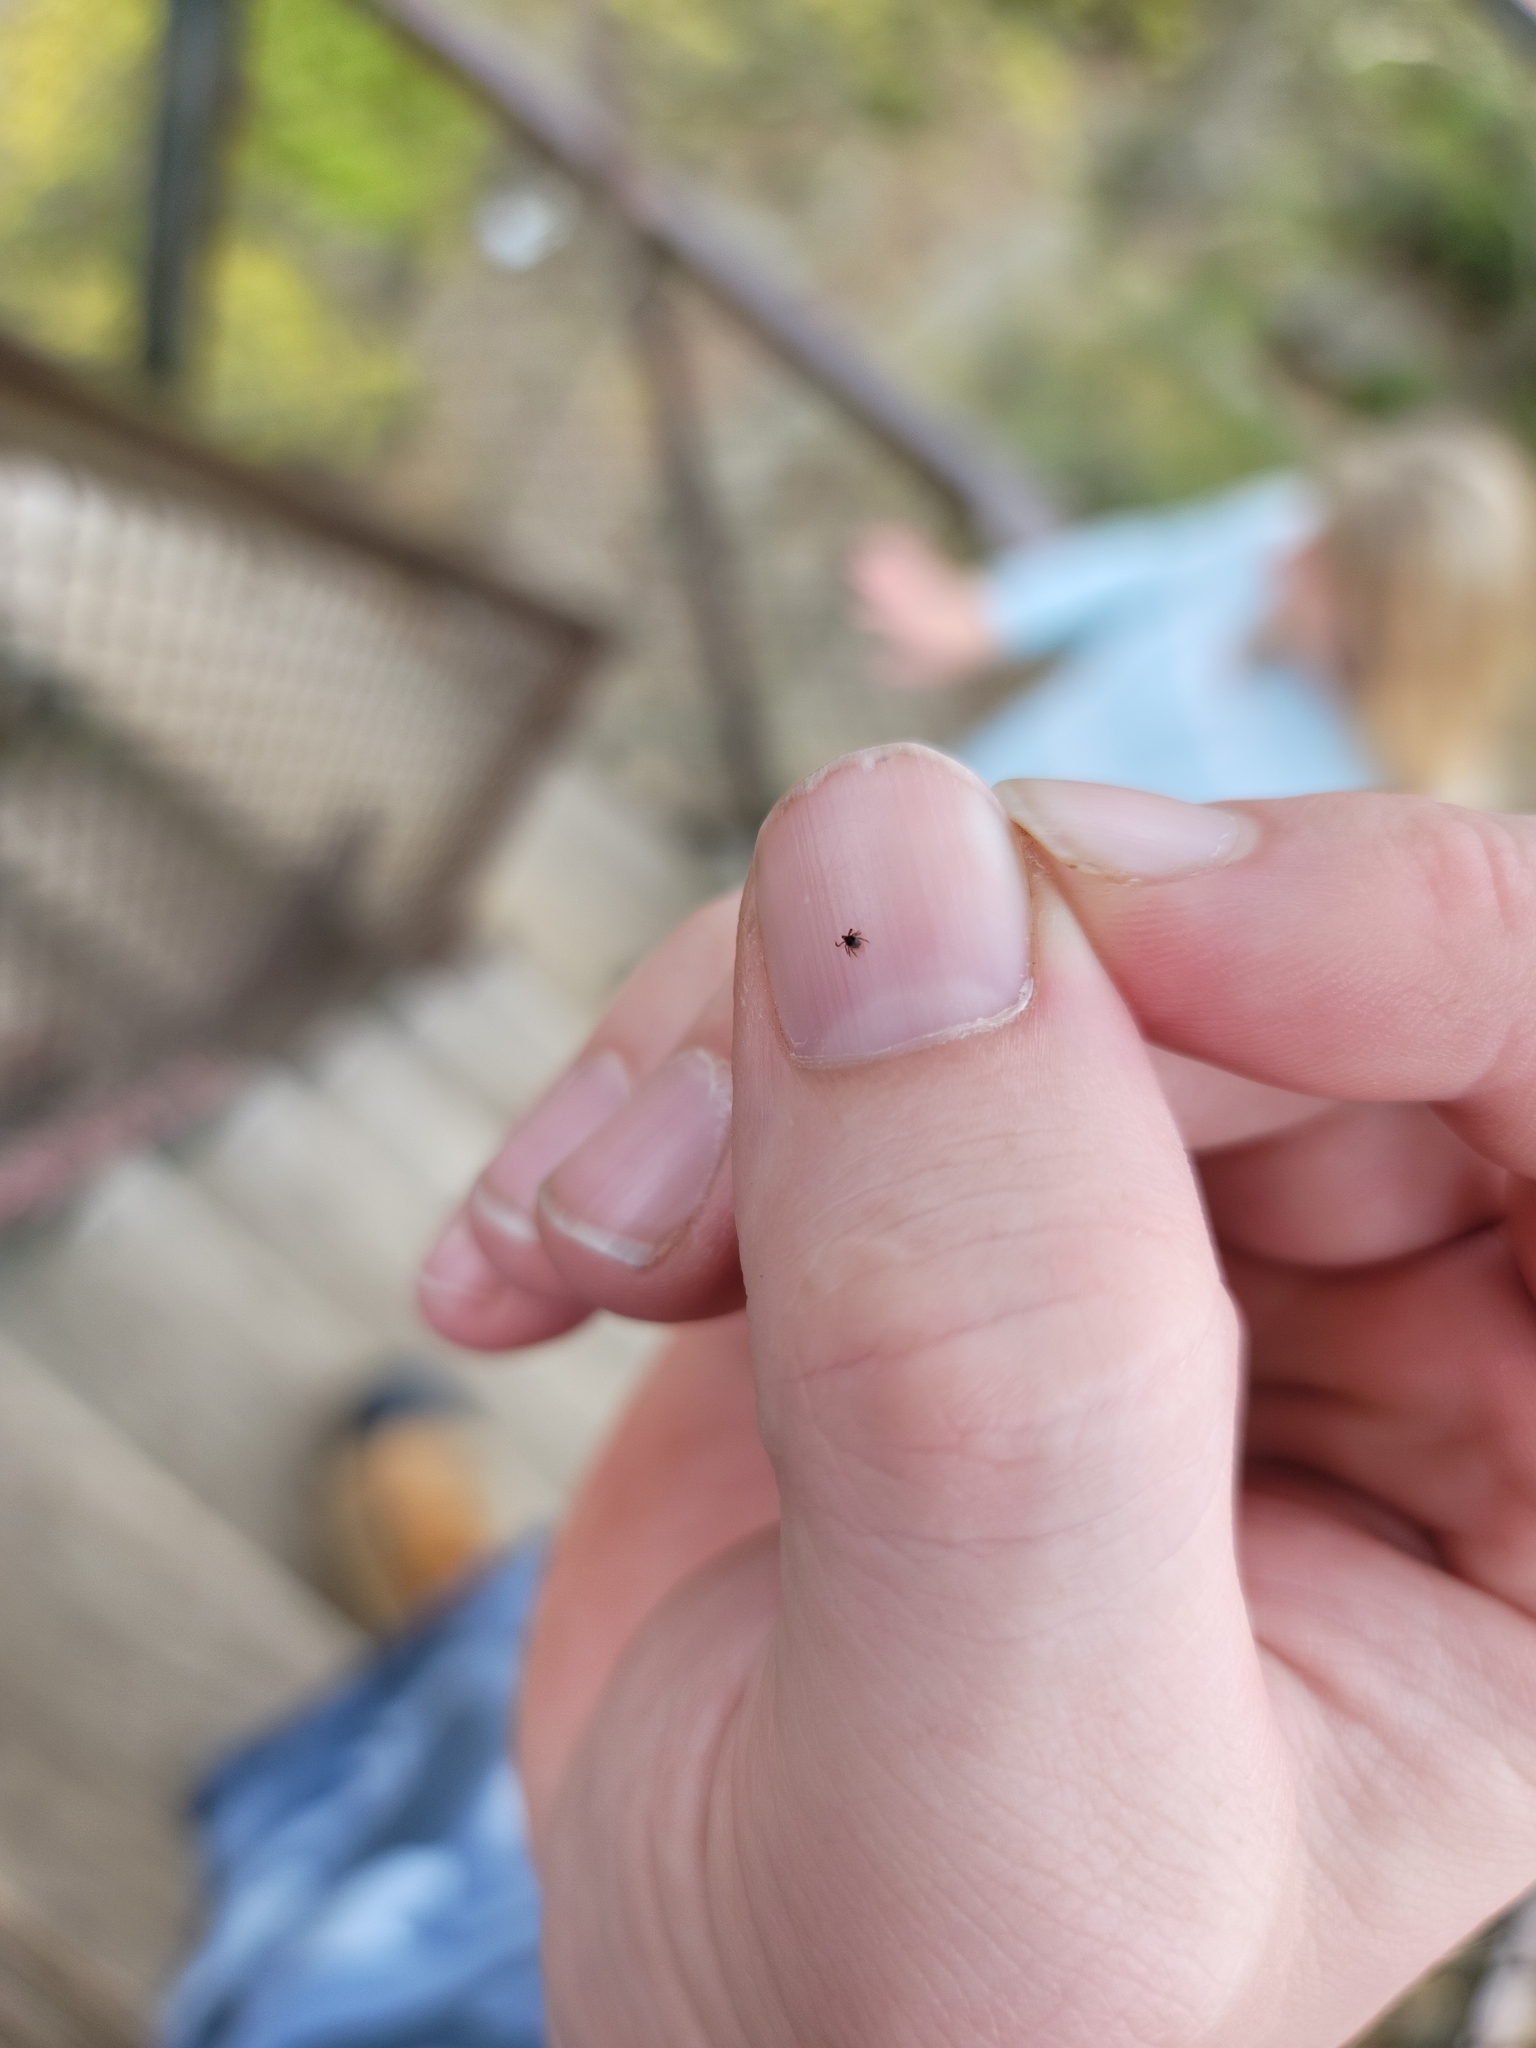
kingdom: Animalia
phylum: Arthropoda
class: Arachnida
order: Ixodida
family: Ixodidae
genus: Ixodes
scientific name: Ixodes scapularis
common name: Black legged tick
